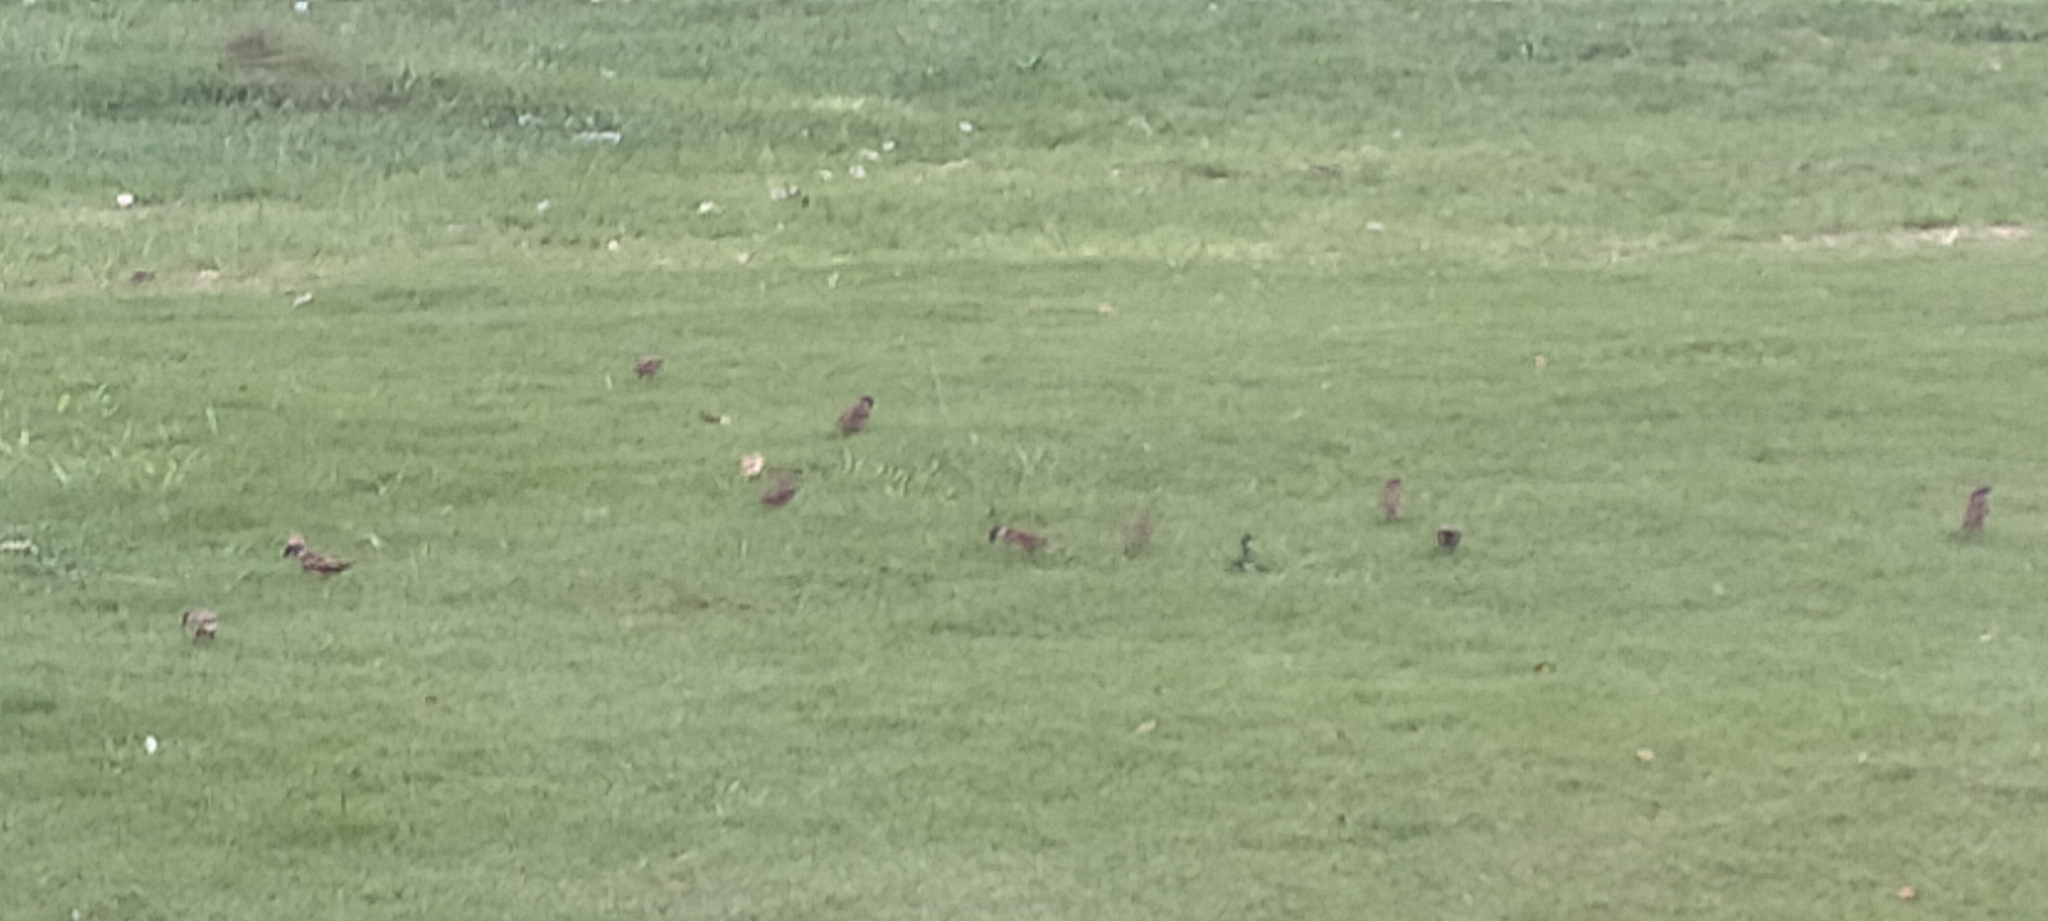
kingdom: Animalia
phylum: Chordata
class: Aves
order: Passeriformes
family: Passeridae
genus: Passer
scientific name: Passer montanus
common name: Eurasian tree sparrow
